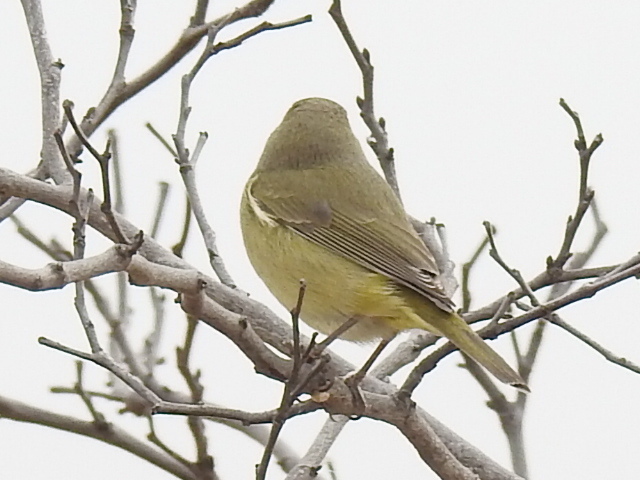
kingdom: Animalia
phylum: Chordata
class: Aves
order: Passeriformes
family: Parulidae
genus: Leiothlypis
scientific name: Leiothlypis celata
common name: Orange-crowned warbler
